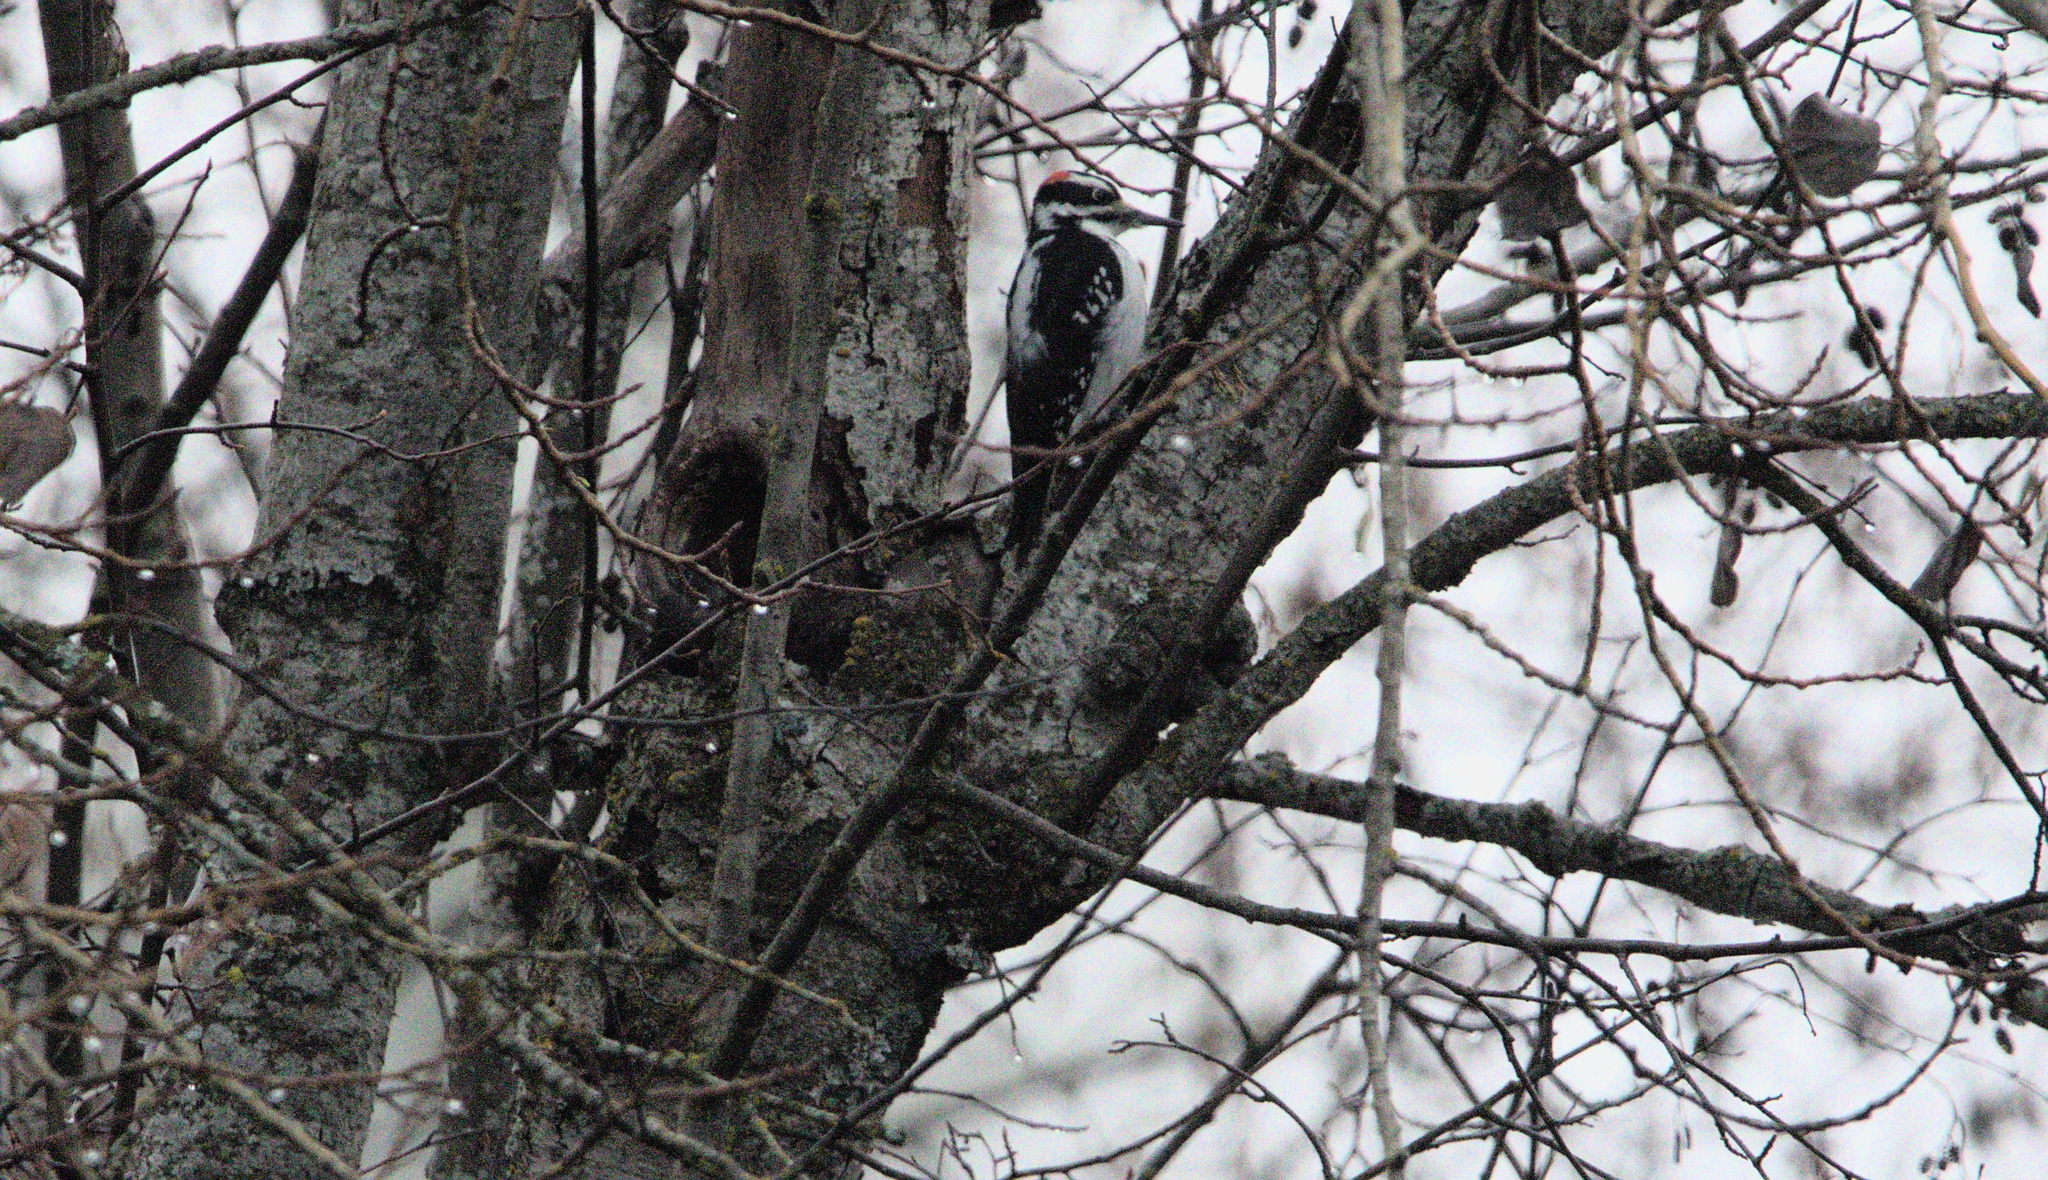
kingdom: Animalia
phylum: Chordata
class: Aves
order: Piciformes
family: Picidae
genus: Leuconotopicus
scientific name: Leuconotopicus villosus
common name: Hairy woodpecker
